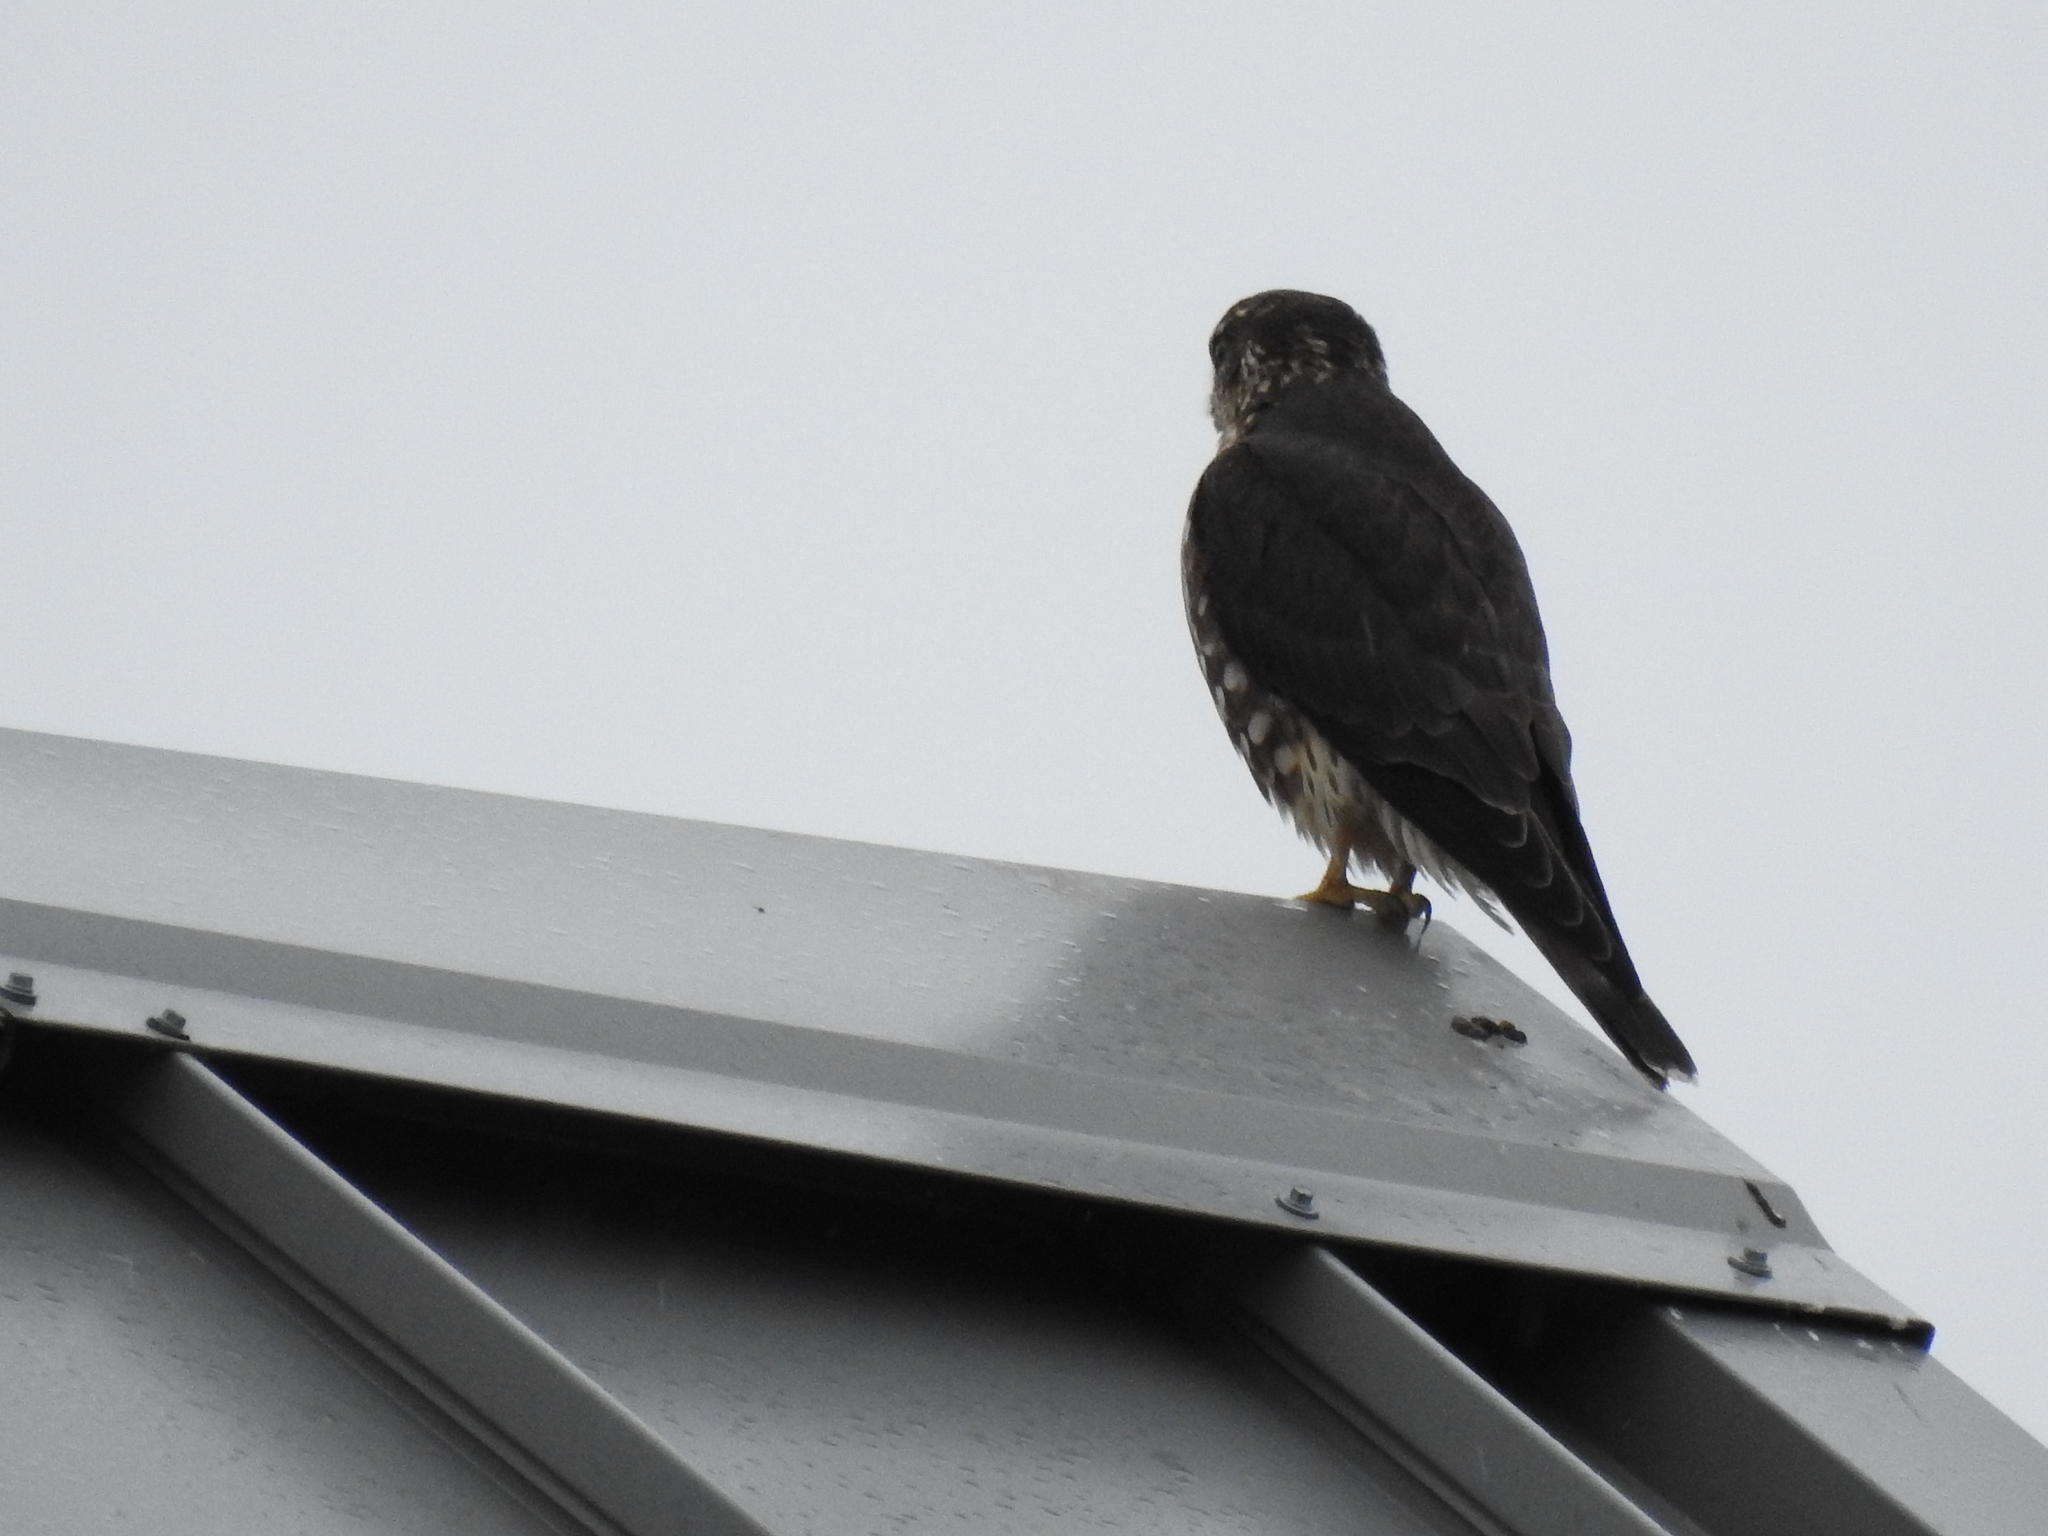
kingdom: Animalia
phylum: Chordata
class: Aves
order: Falconiformes
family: Falconidae
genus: Falco
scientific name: Falco columbarius
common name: Merlin
